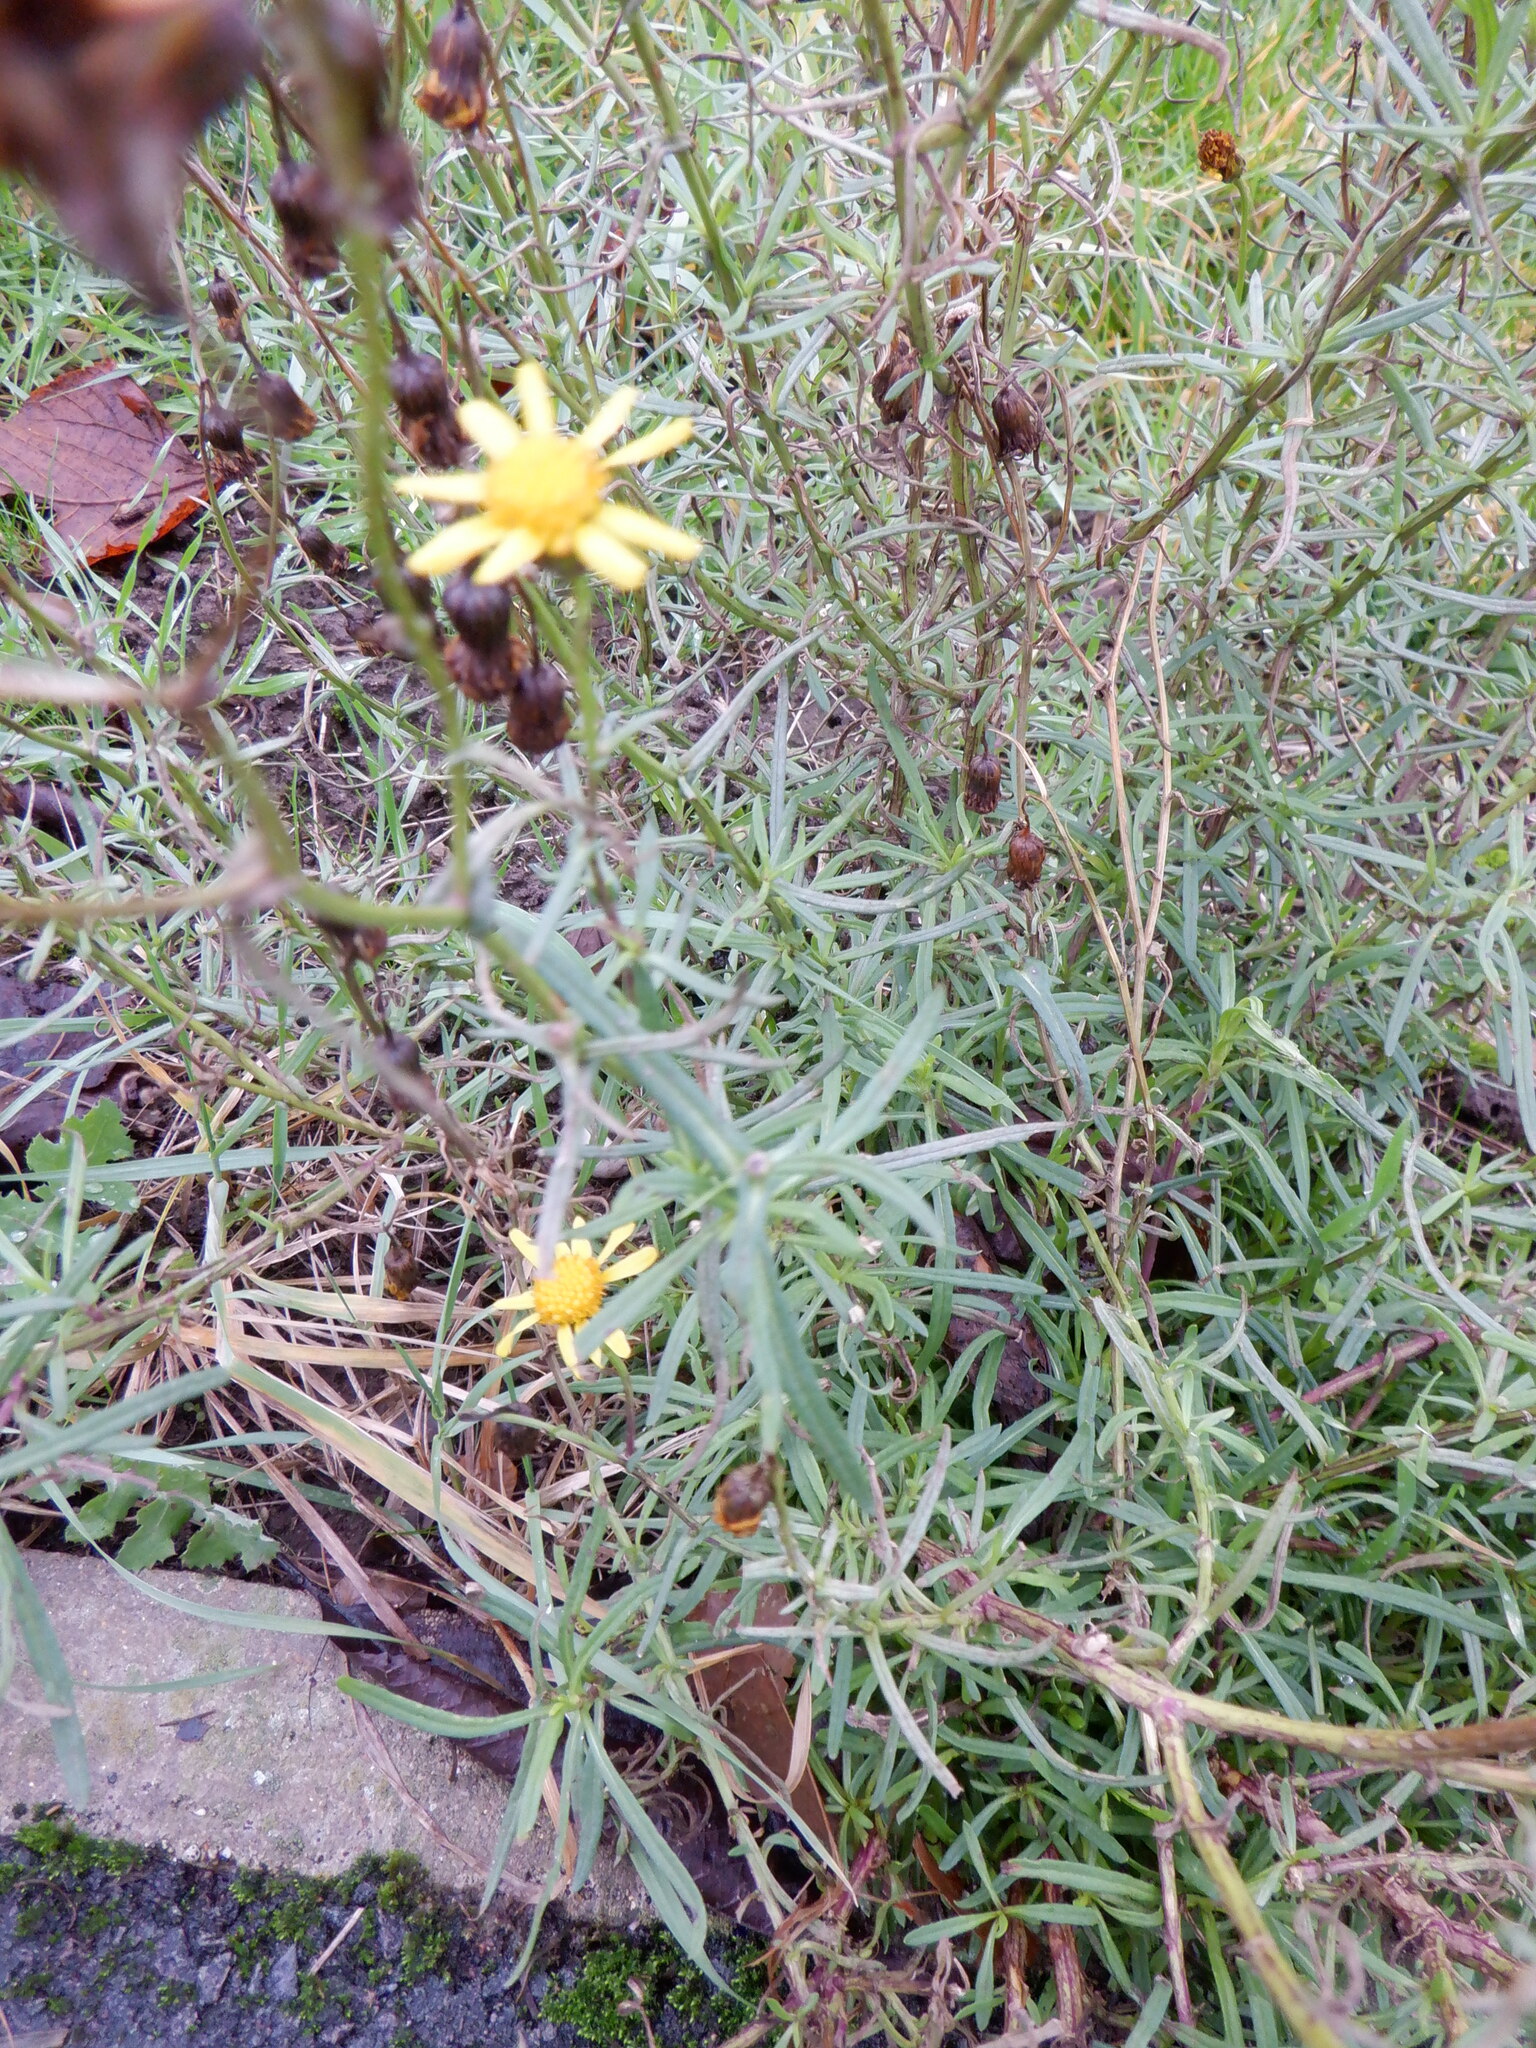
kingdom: Plantae
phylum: Tracheophyta
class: Magnoliopsida
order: Asterales
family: Asteraceae
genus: Senecio
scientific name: Senecio inaequidens
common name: Narrow-leaved ragwort
